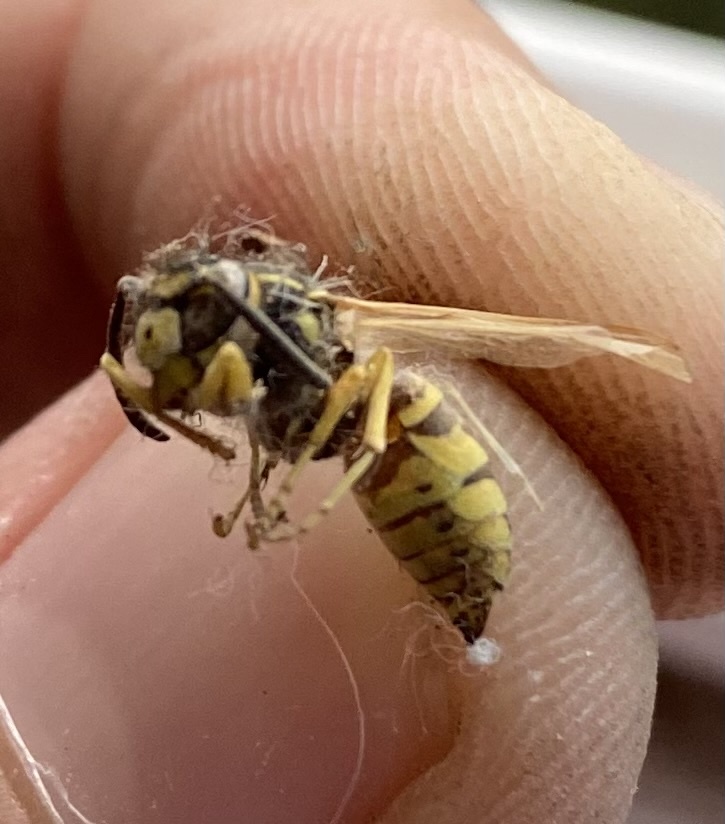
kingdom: Animalia
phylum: Arthropoda
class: Insecta
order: Hymenoptera
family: Vespidae
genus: Vespula
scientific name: Vespula germanica
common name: German wasp
